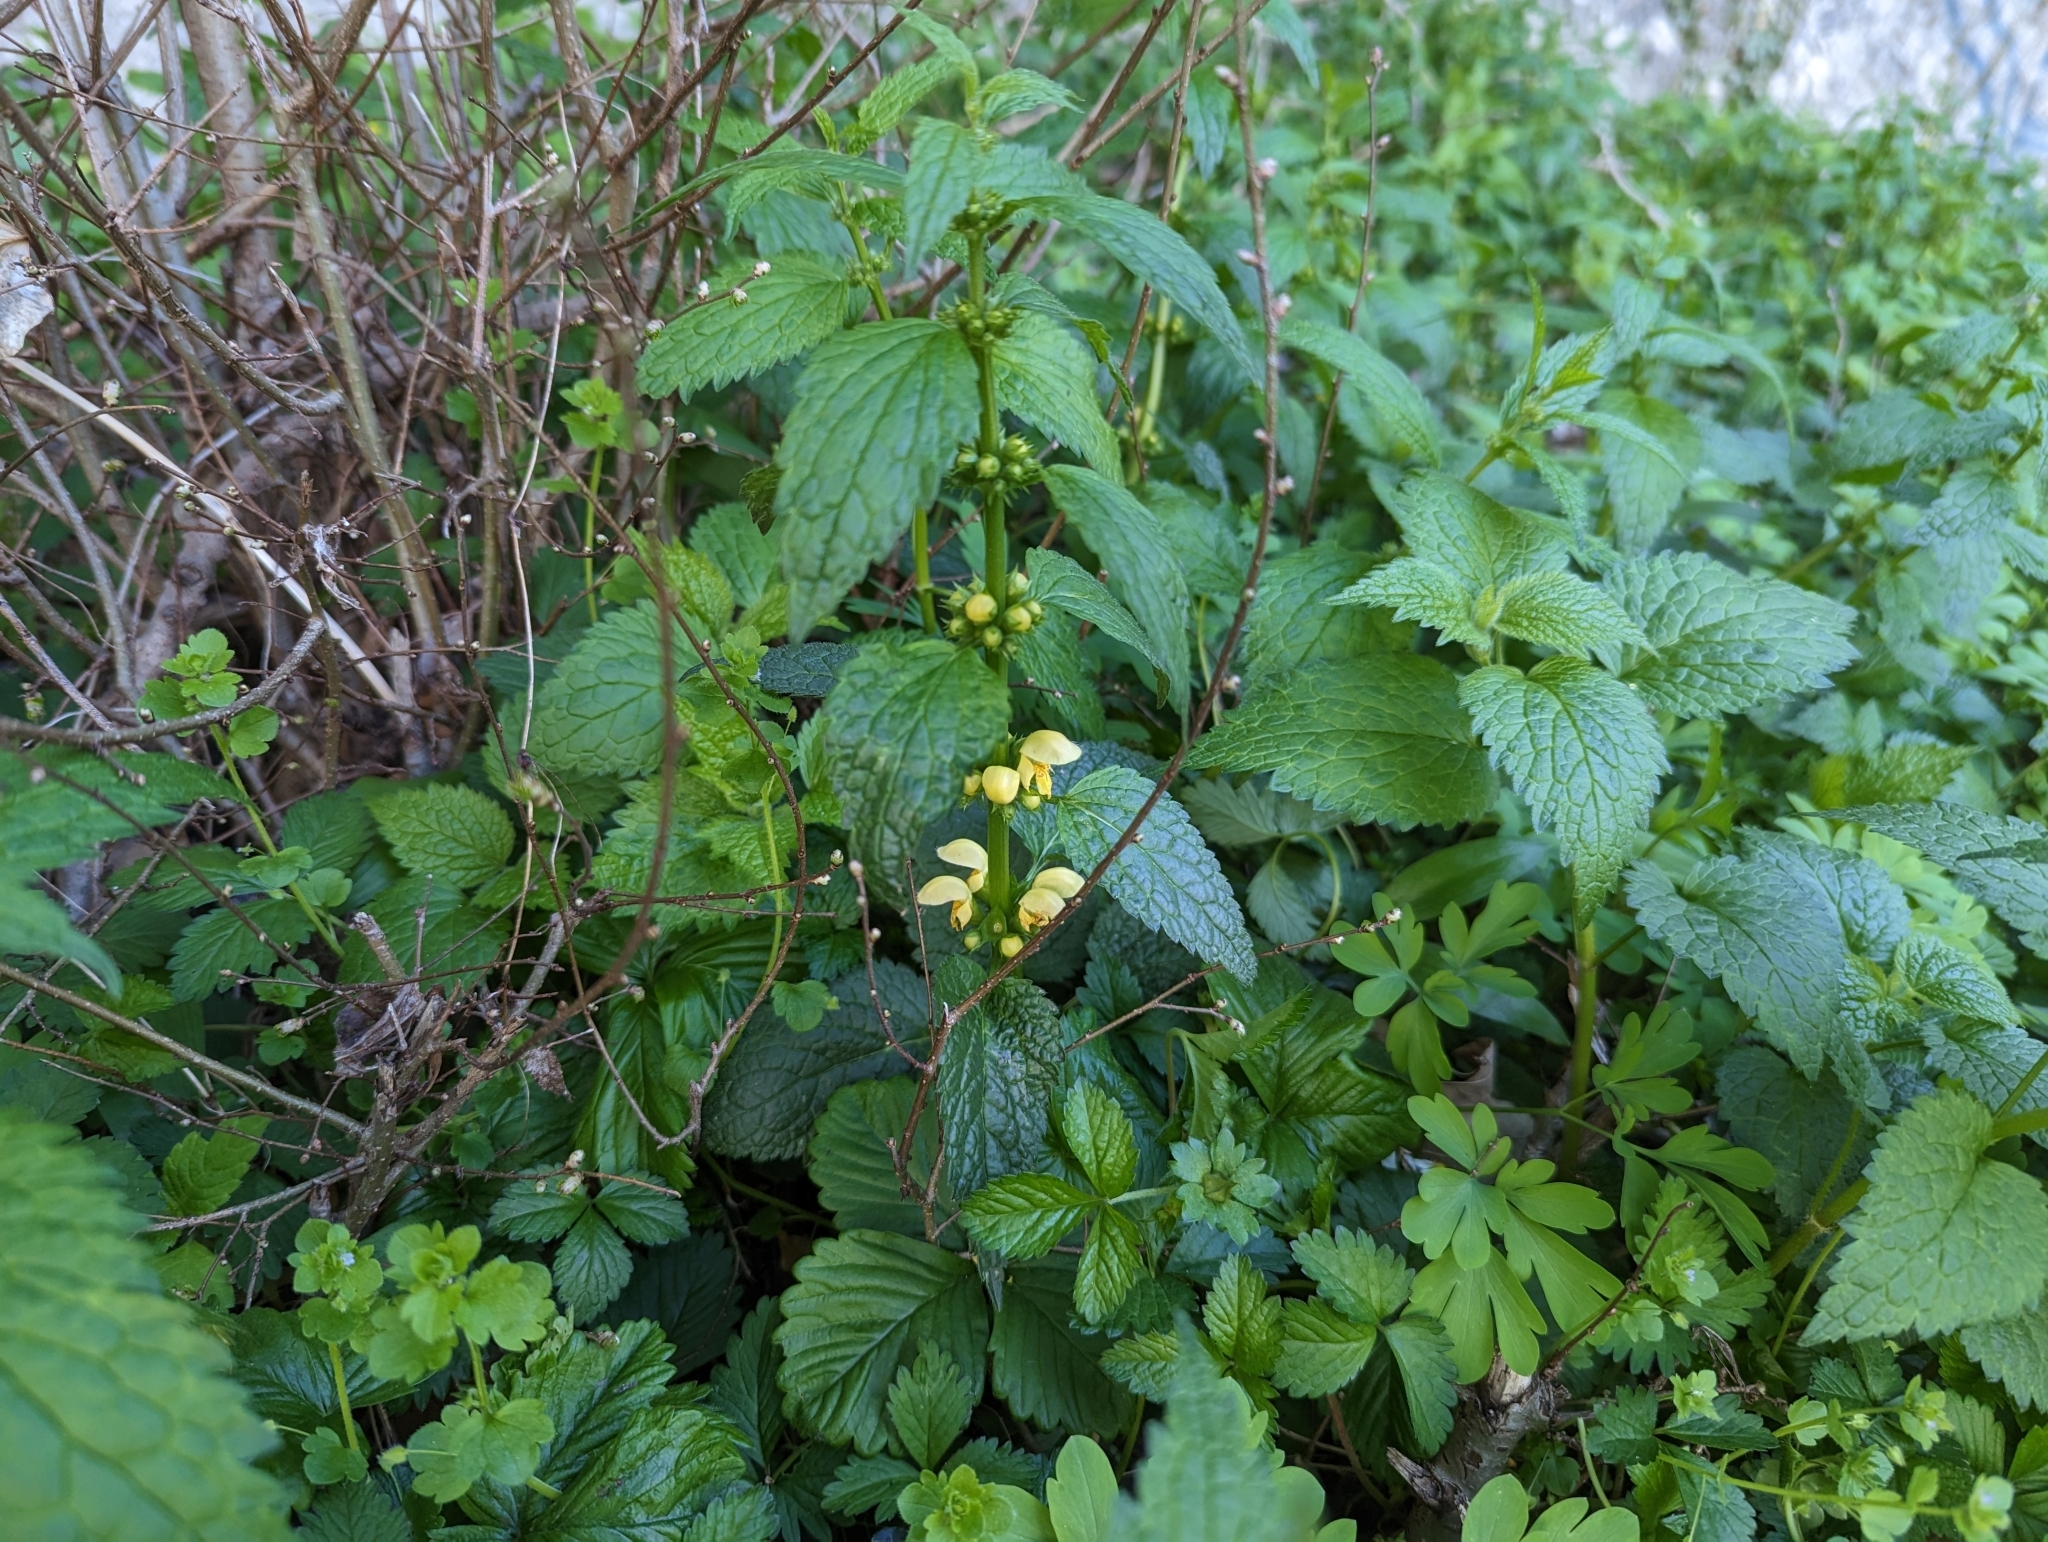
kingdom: Plantae
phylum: Tracheophyta
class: Magnoliopsida
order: Lamiales
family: Lamiaceae
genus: Lamium
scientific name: Lamium galeobdolon
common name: Yellow archangel
